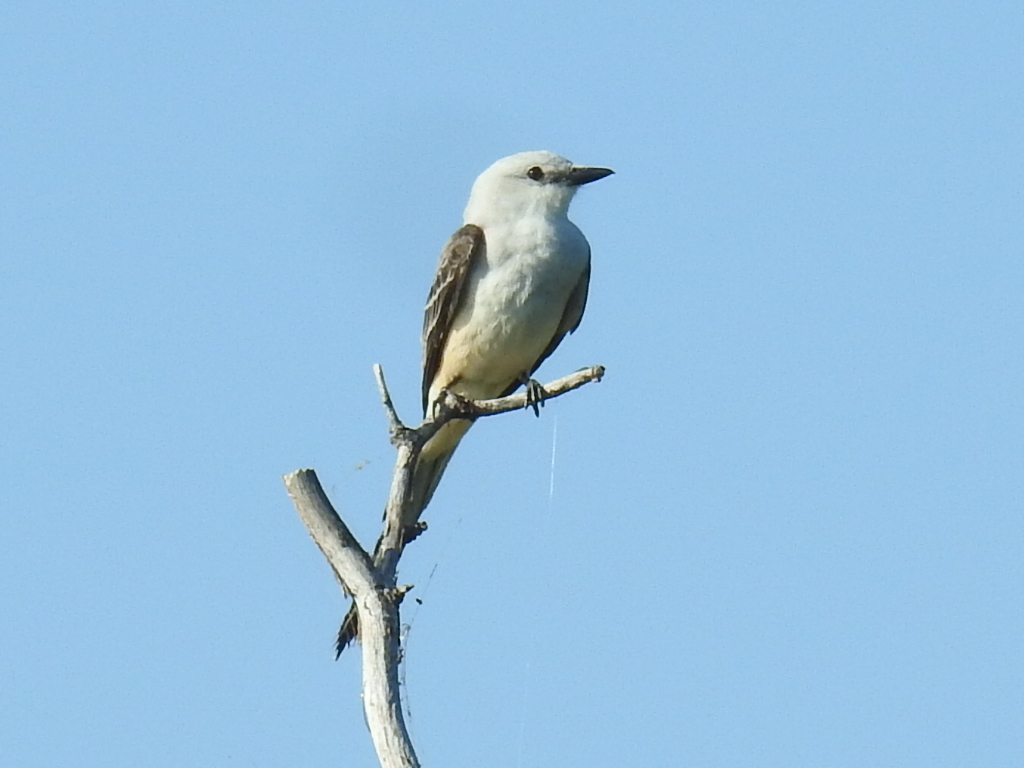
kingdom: Animalia
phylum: Chordata
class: Aves
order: Passeriformes
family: Tyrannidae
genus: Tyrannus
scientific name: Tyrannus forficatus
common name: Scissor-tailed flycatcher
